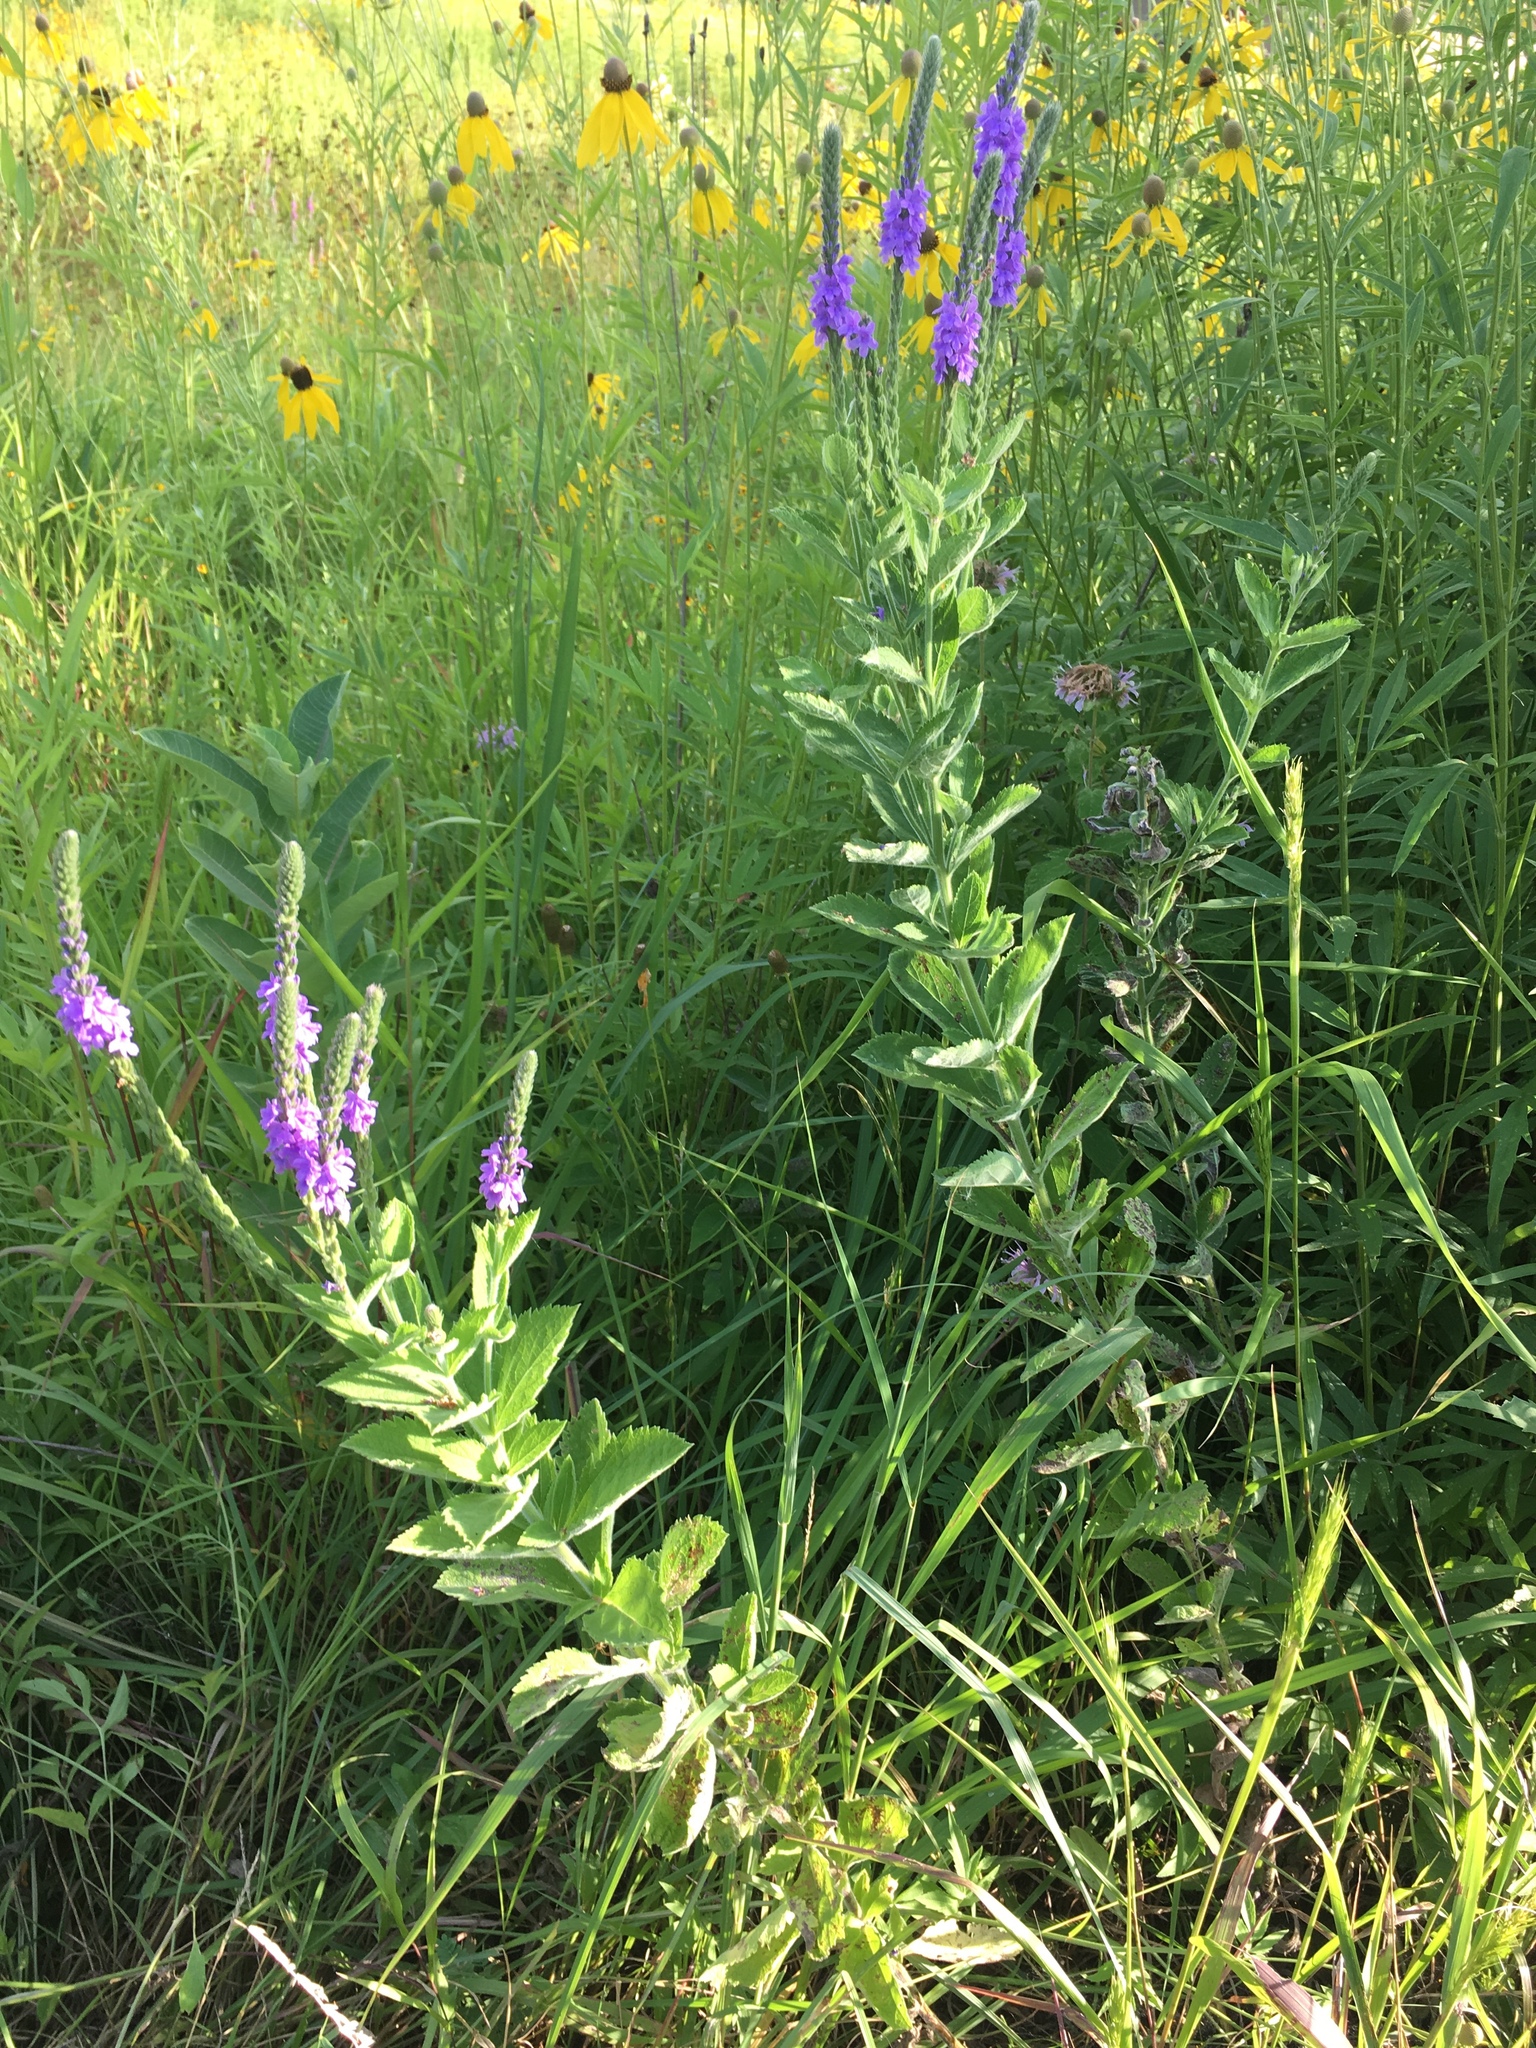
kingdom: Plantae
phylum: Tracheophyta
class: Magnoliopsida
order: Lamiales
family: Verbenaceae
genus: Verbena
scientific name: Verbena stricta
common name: Hoary vervain
